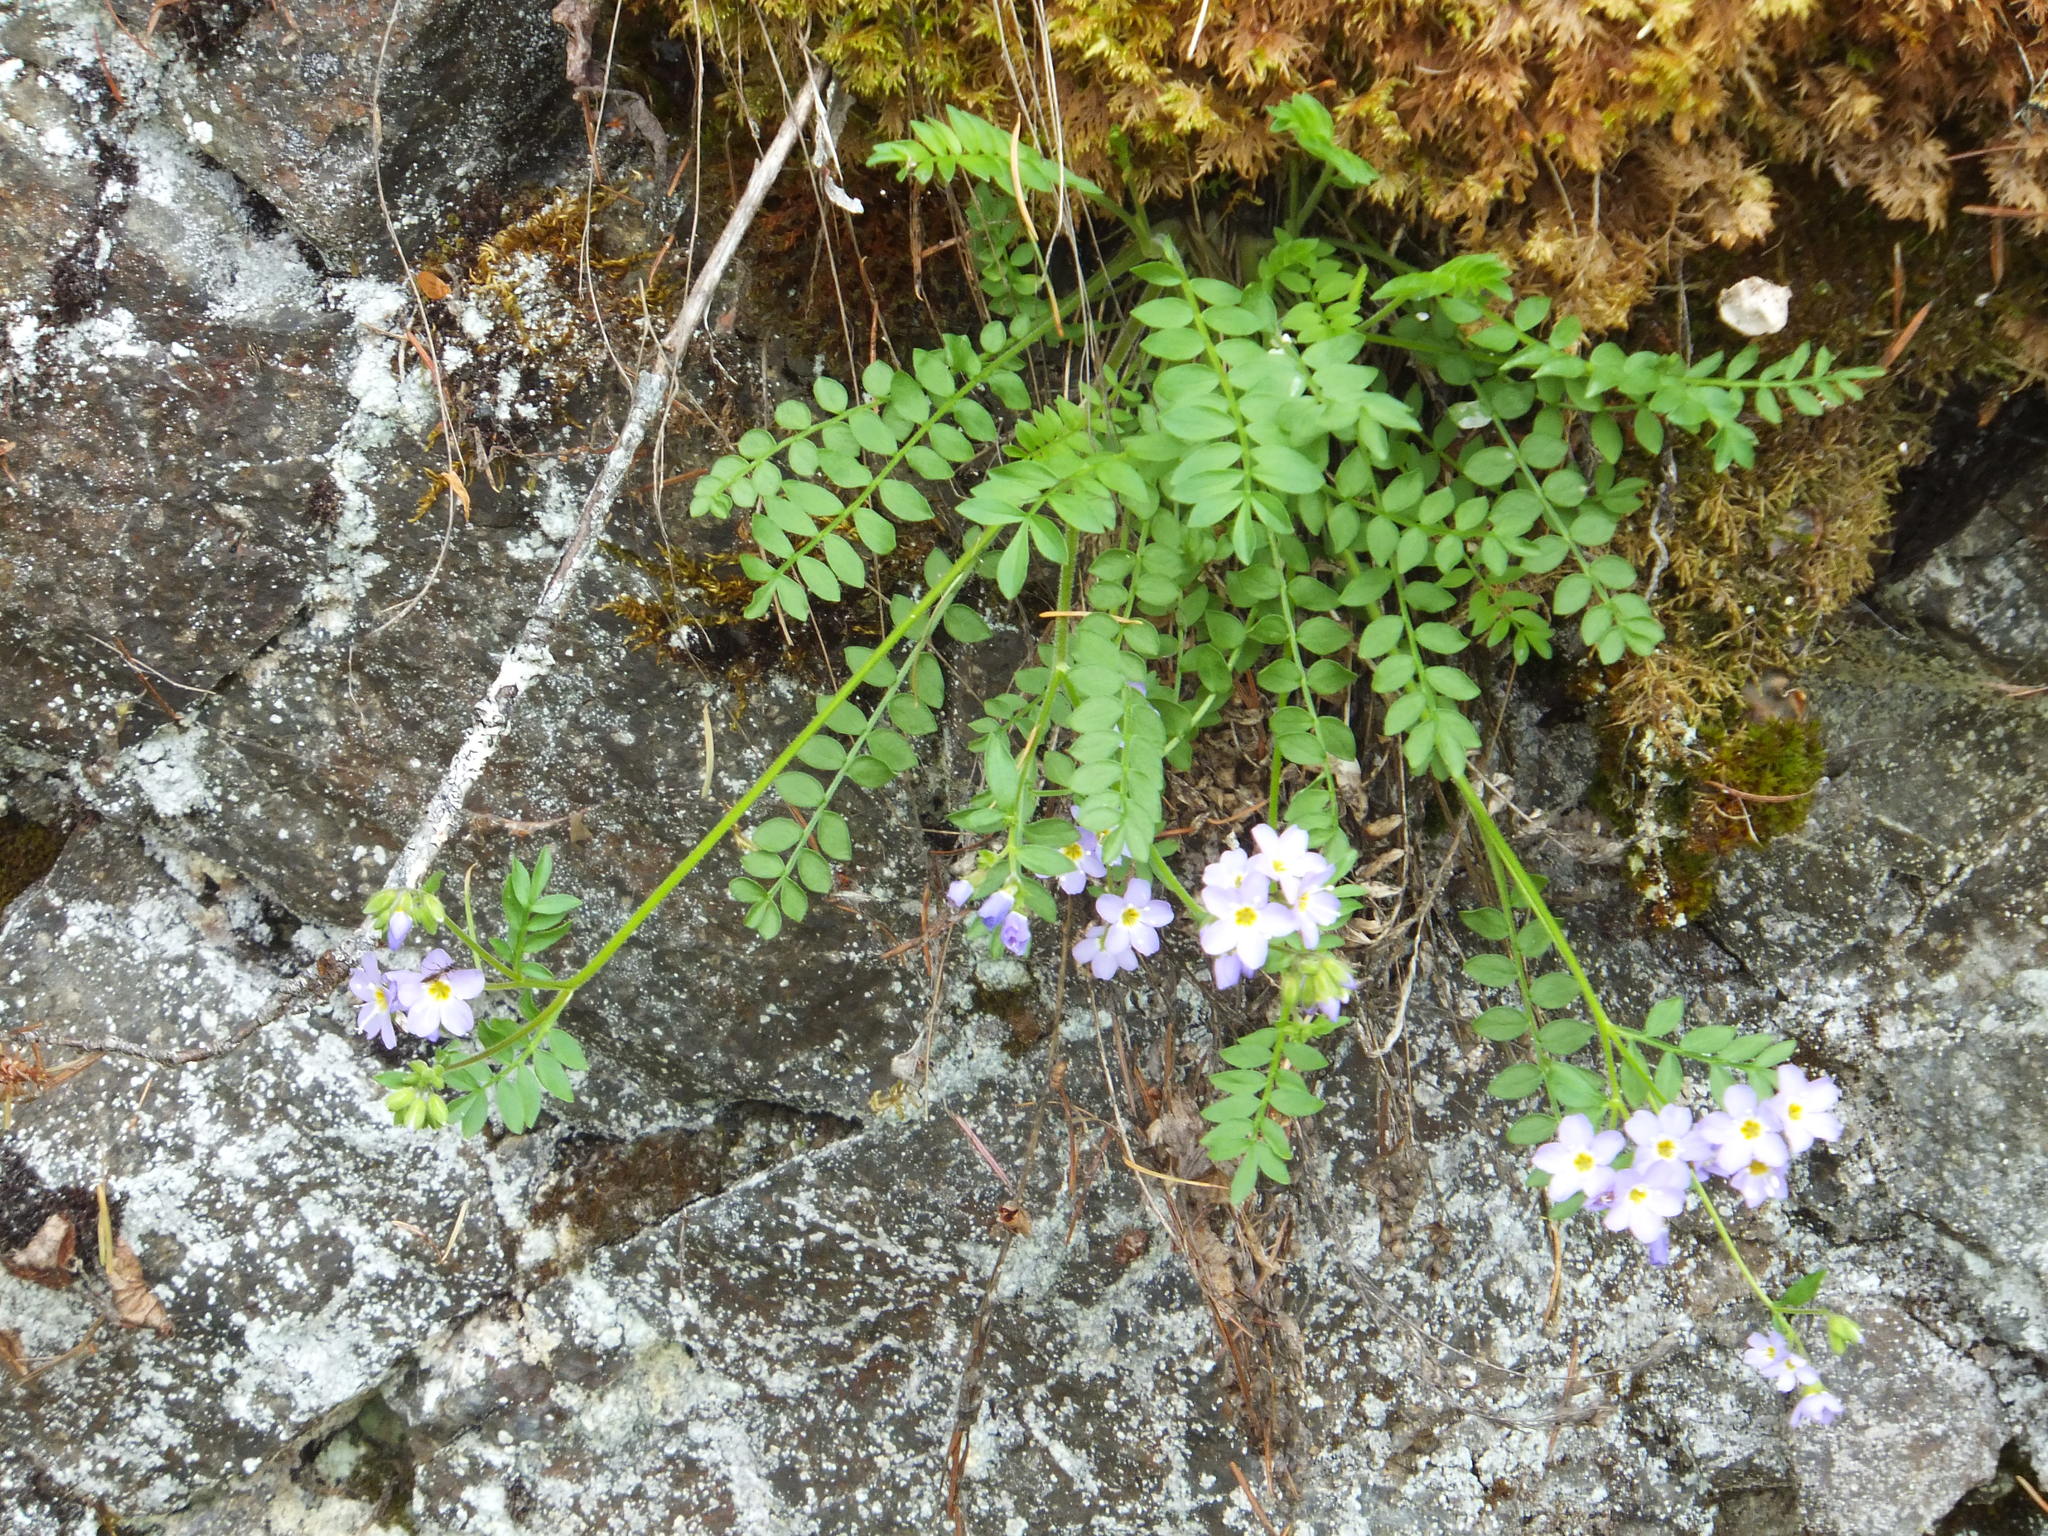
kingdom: Plantae
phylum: Tracheophyta
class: Magnoliopsida
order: Ericales
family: Polemoniaceae
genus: Polemonium
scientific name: Polemonium pulcherrimum
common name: Short jacob's-ladder
